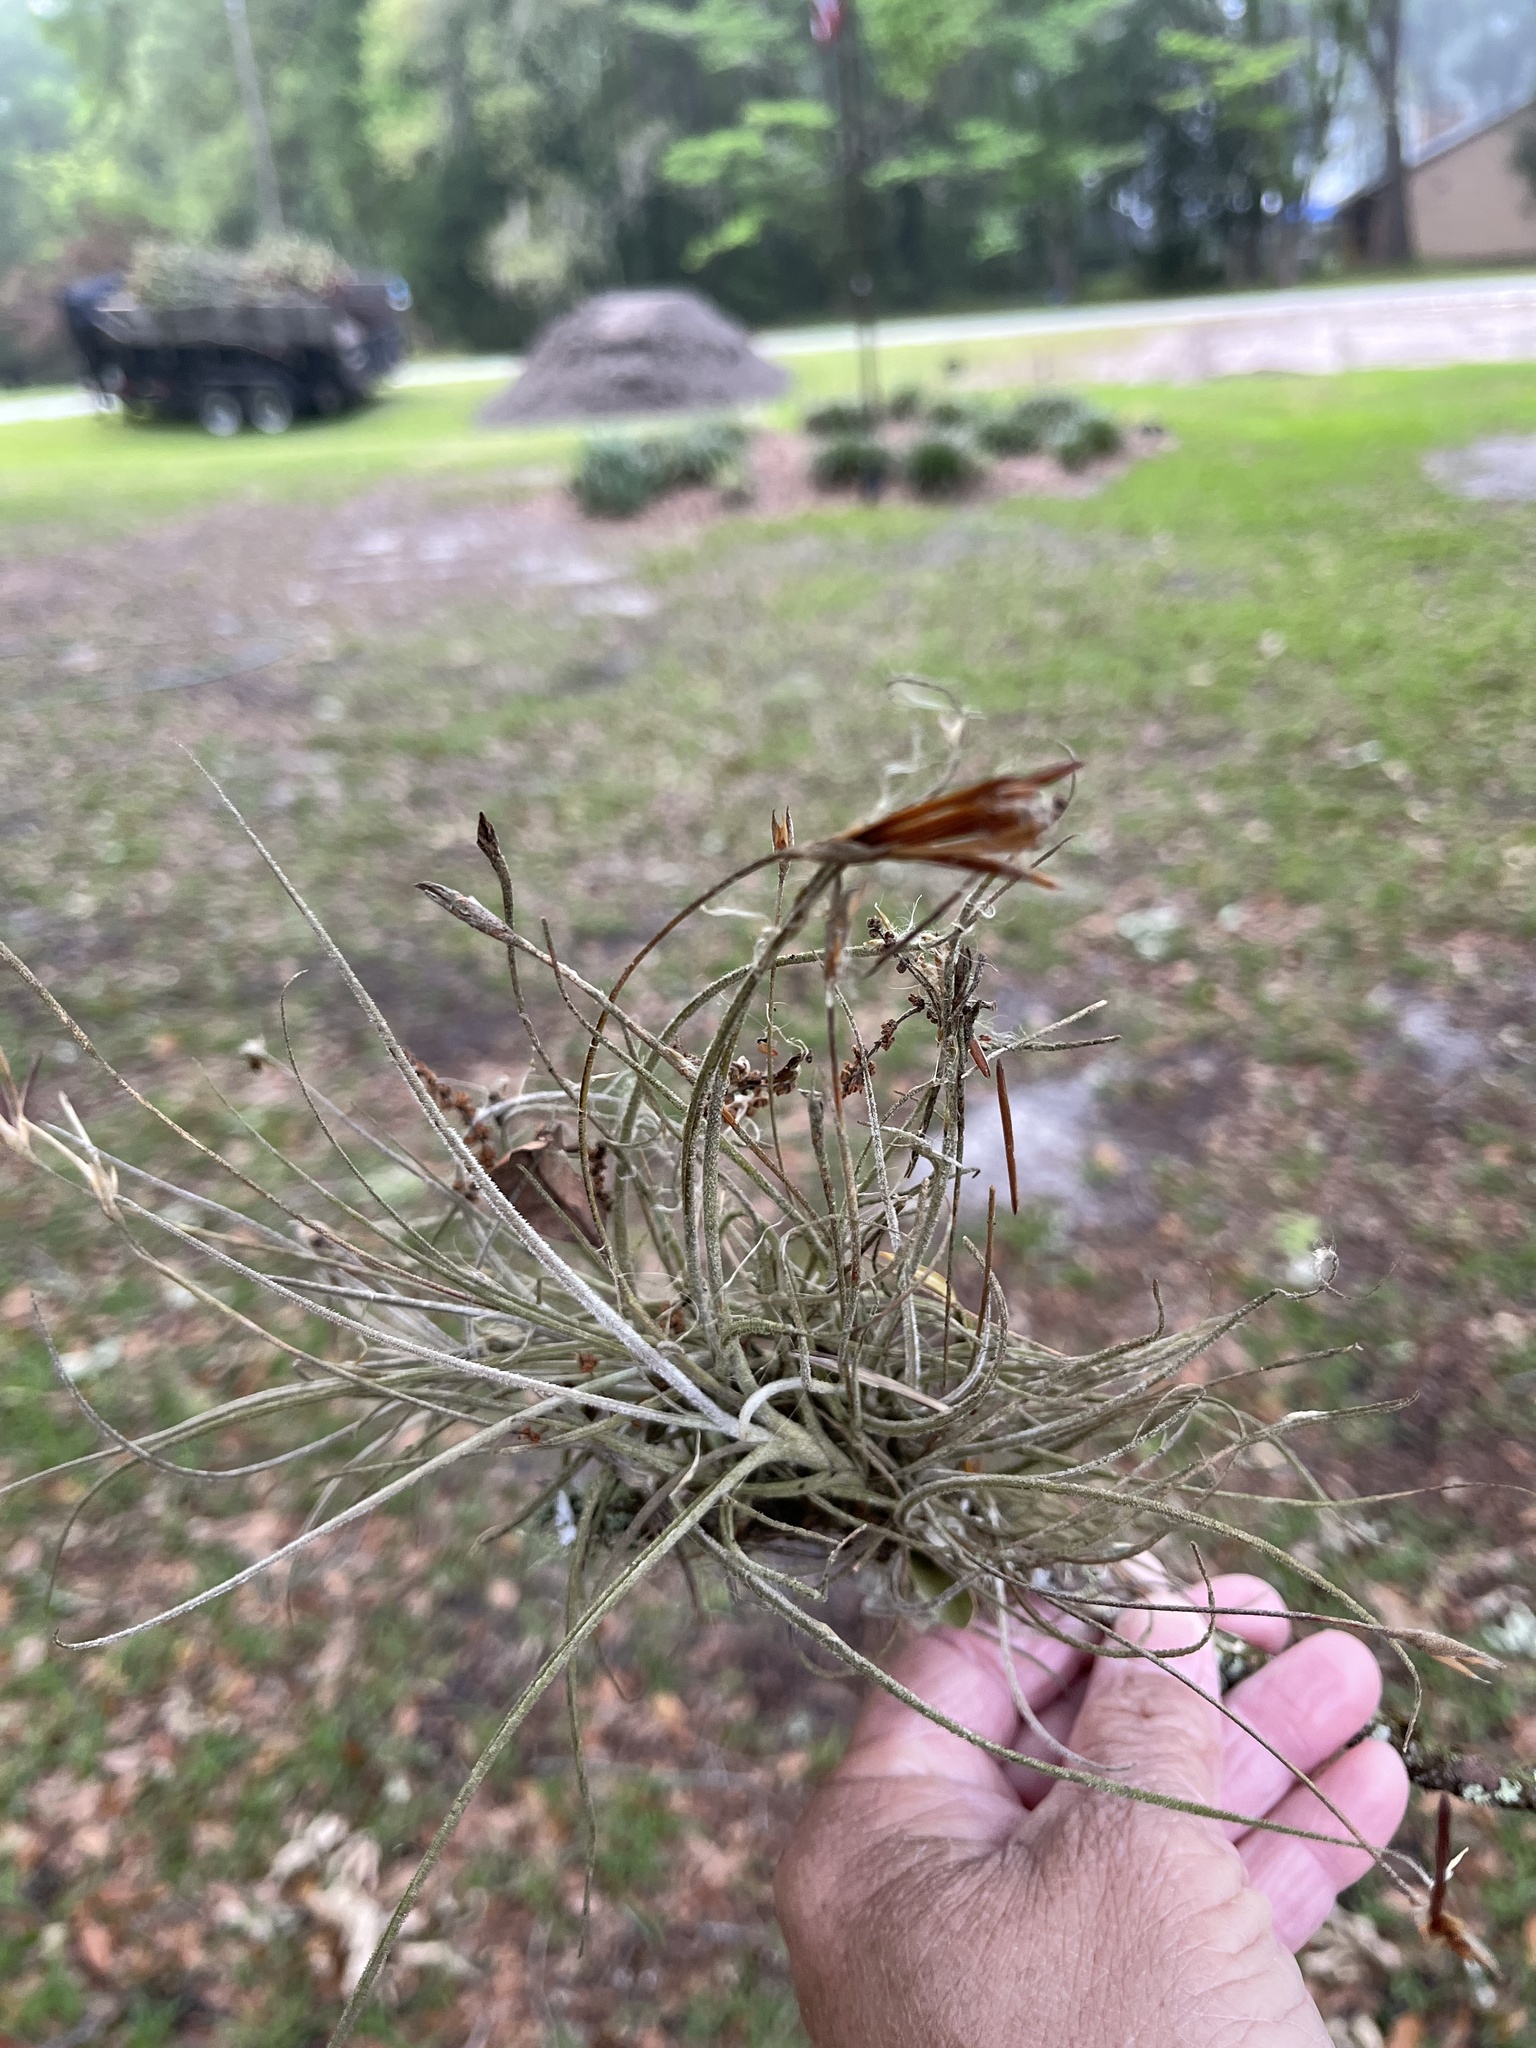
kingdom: Plantae
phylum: Tracheophyta
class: Liliopsida
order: Poales
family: Bromeliaceae
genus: Tillandsia
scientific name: Tillandsia recurvata
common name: Small ballmoss
